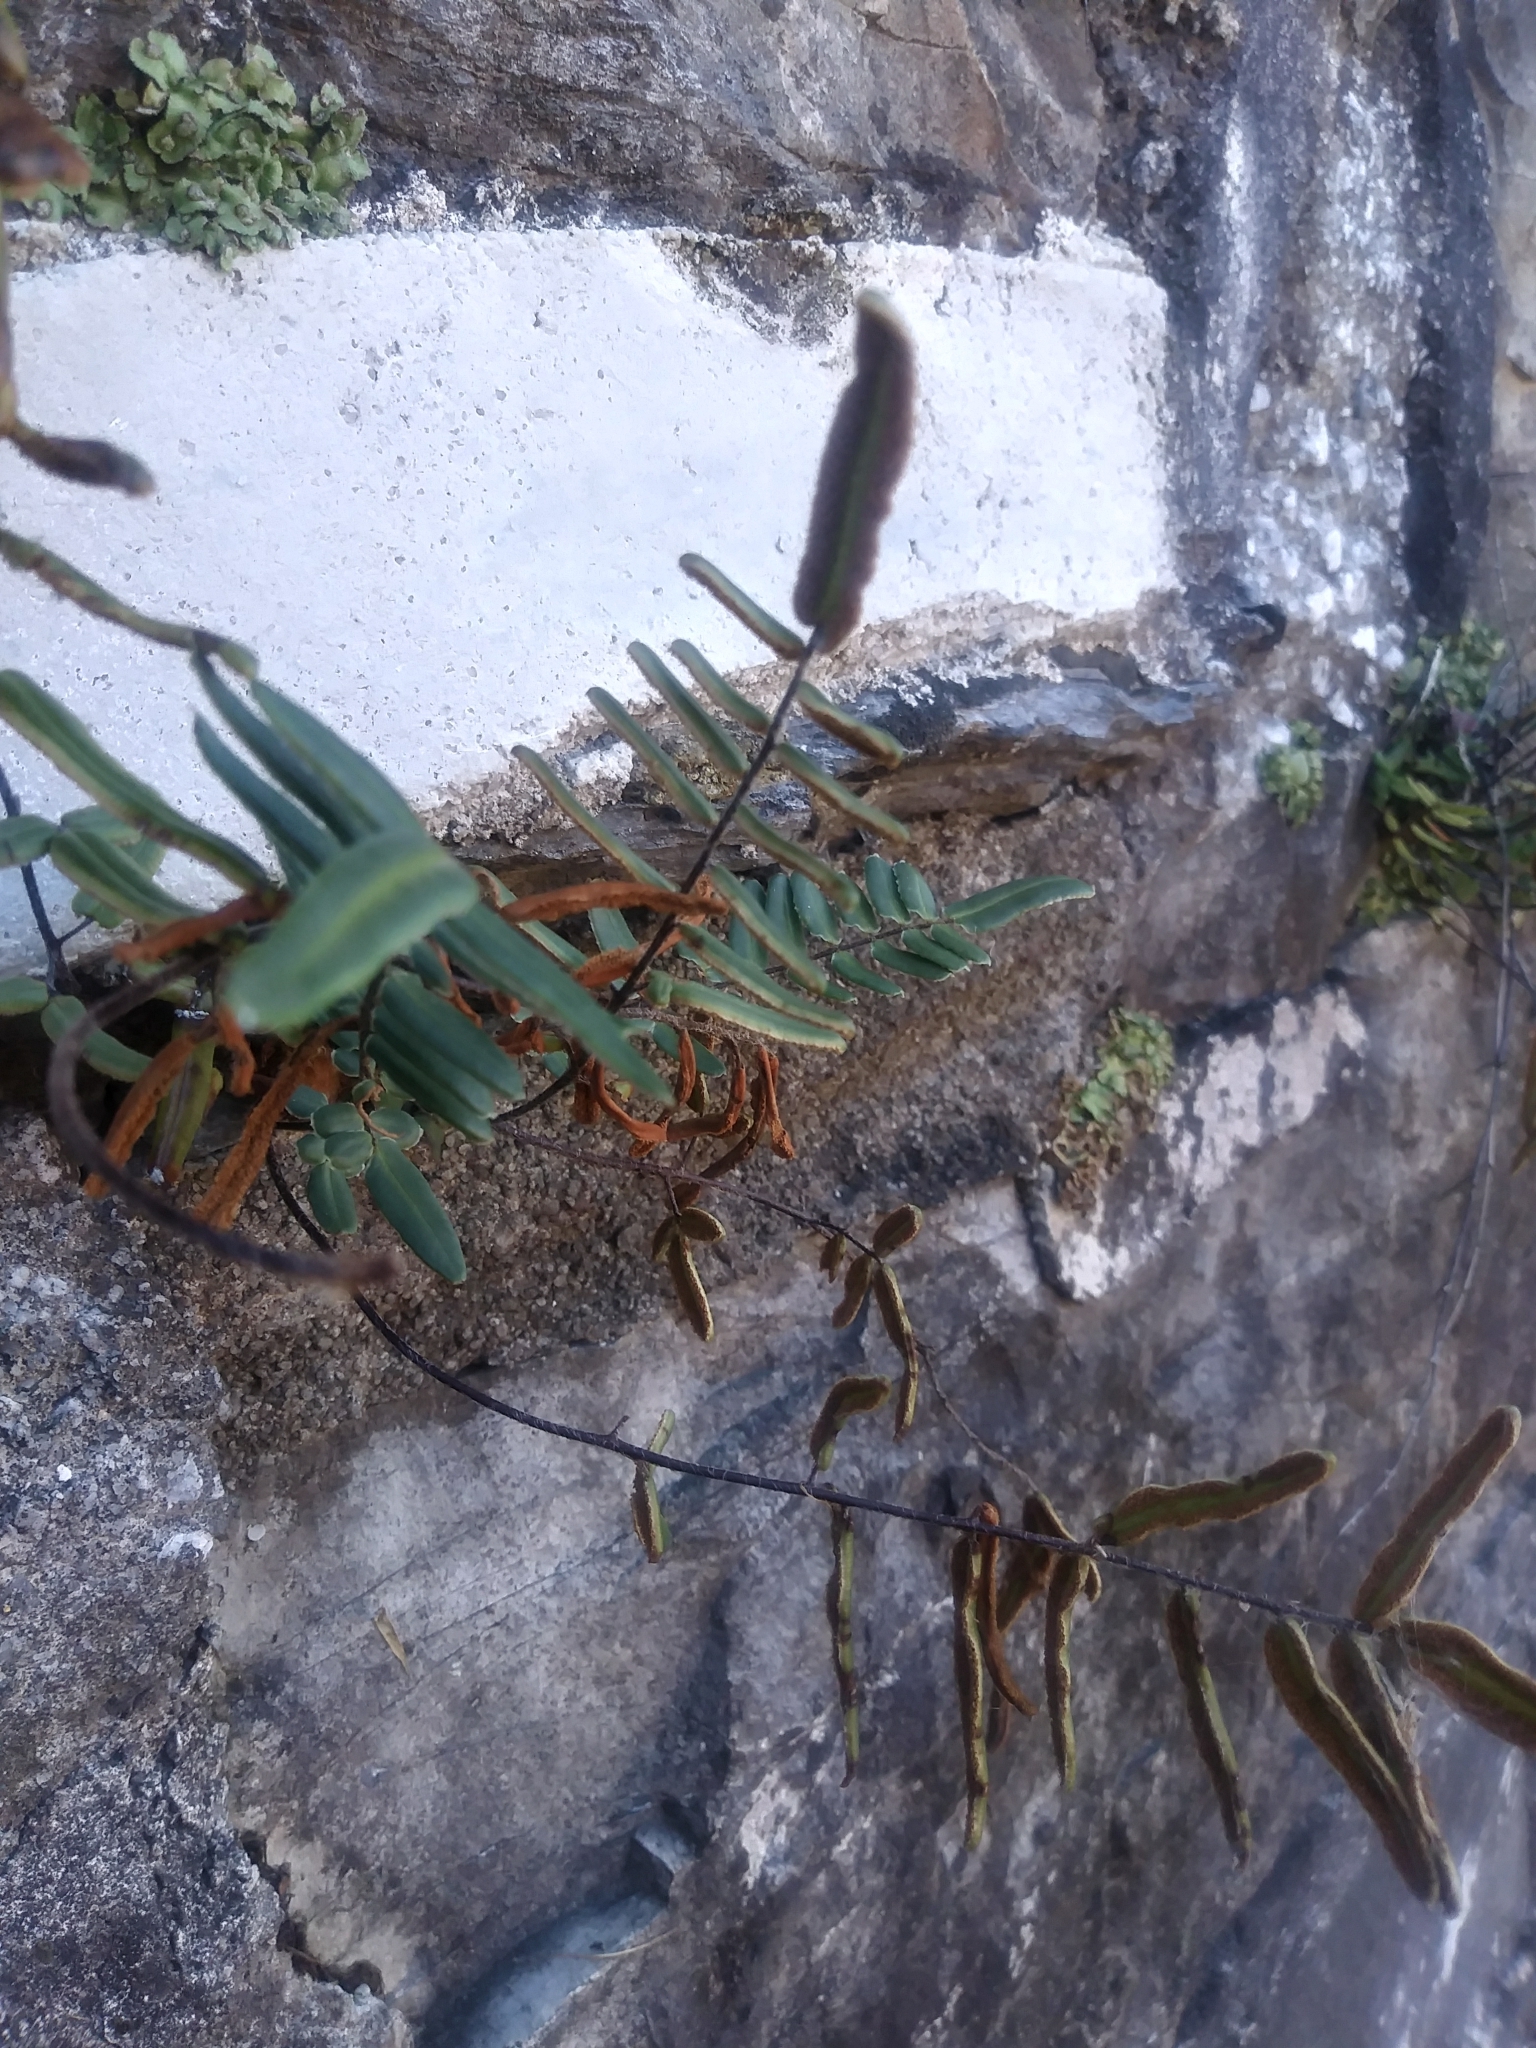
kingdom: Plantae
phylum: Tracheophyta
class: Polypodiopsida
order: Polypodiales
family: Pteridaceae
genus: Pellaea
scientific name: Pellaea atropurpurea
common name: Hairy cliffbrake
